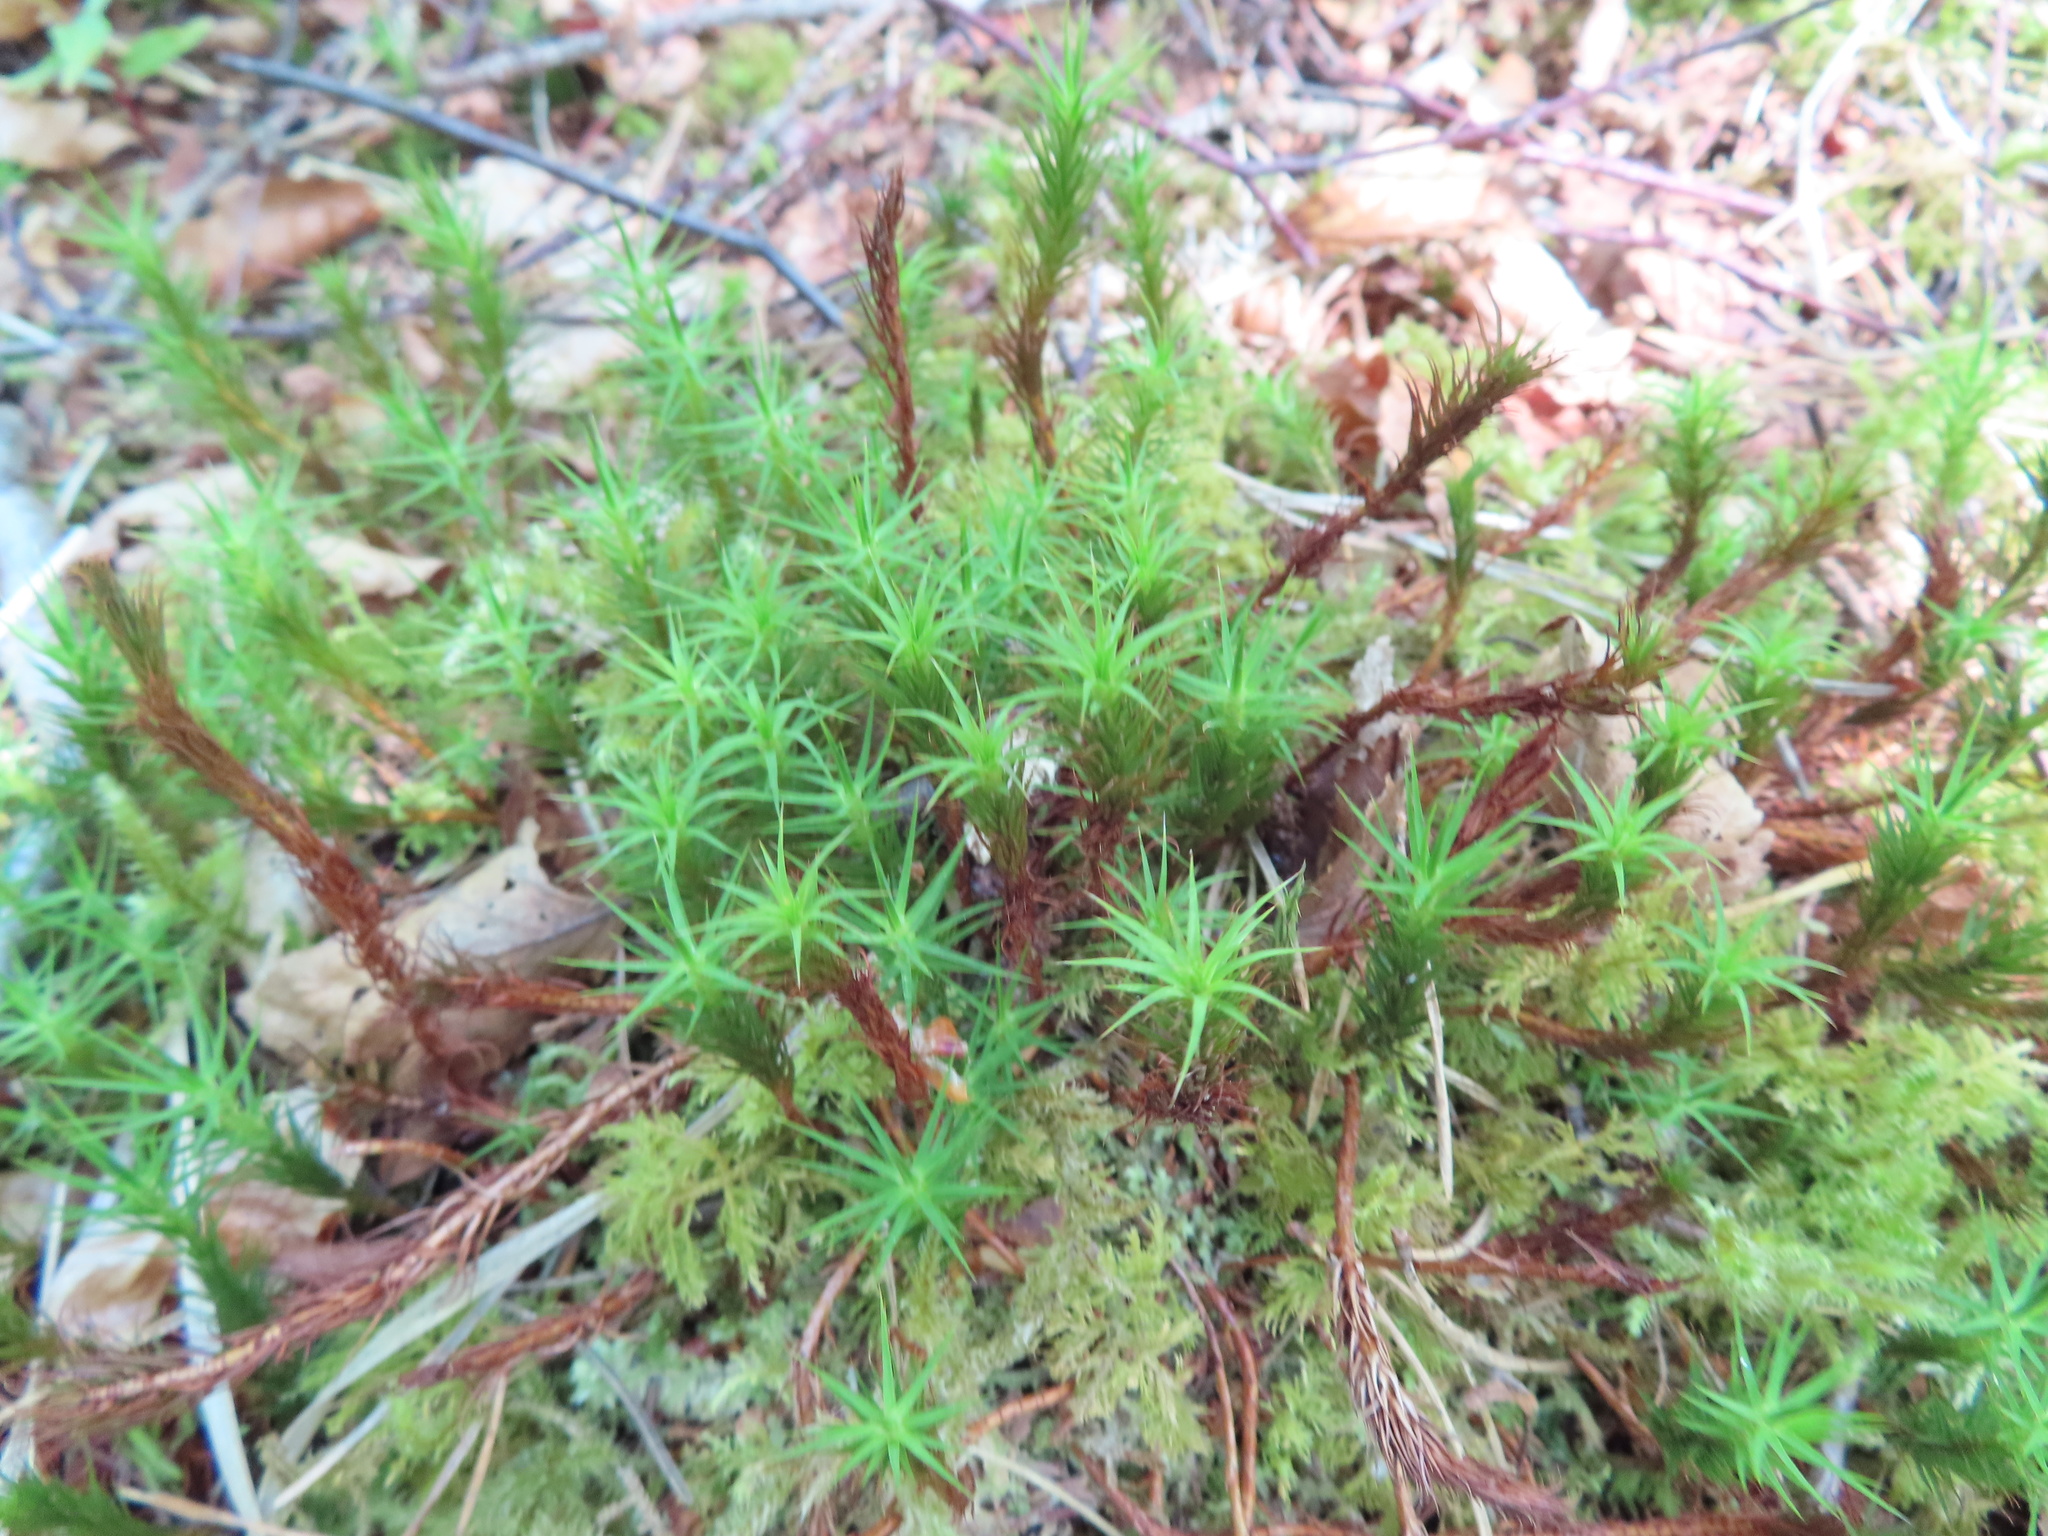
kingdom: Plantae
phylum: Bryophyta
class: Polytrichopsida
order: Polytrichales
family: Polytrichaceae
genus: Polytrichum
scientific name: Polytrichum formosum
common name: Bank haircap moss
